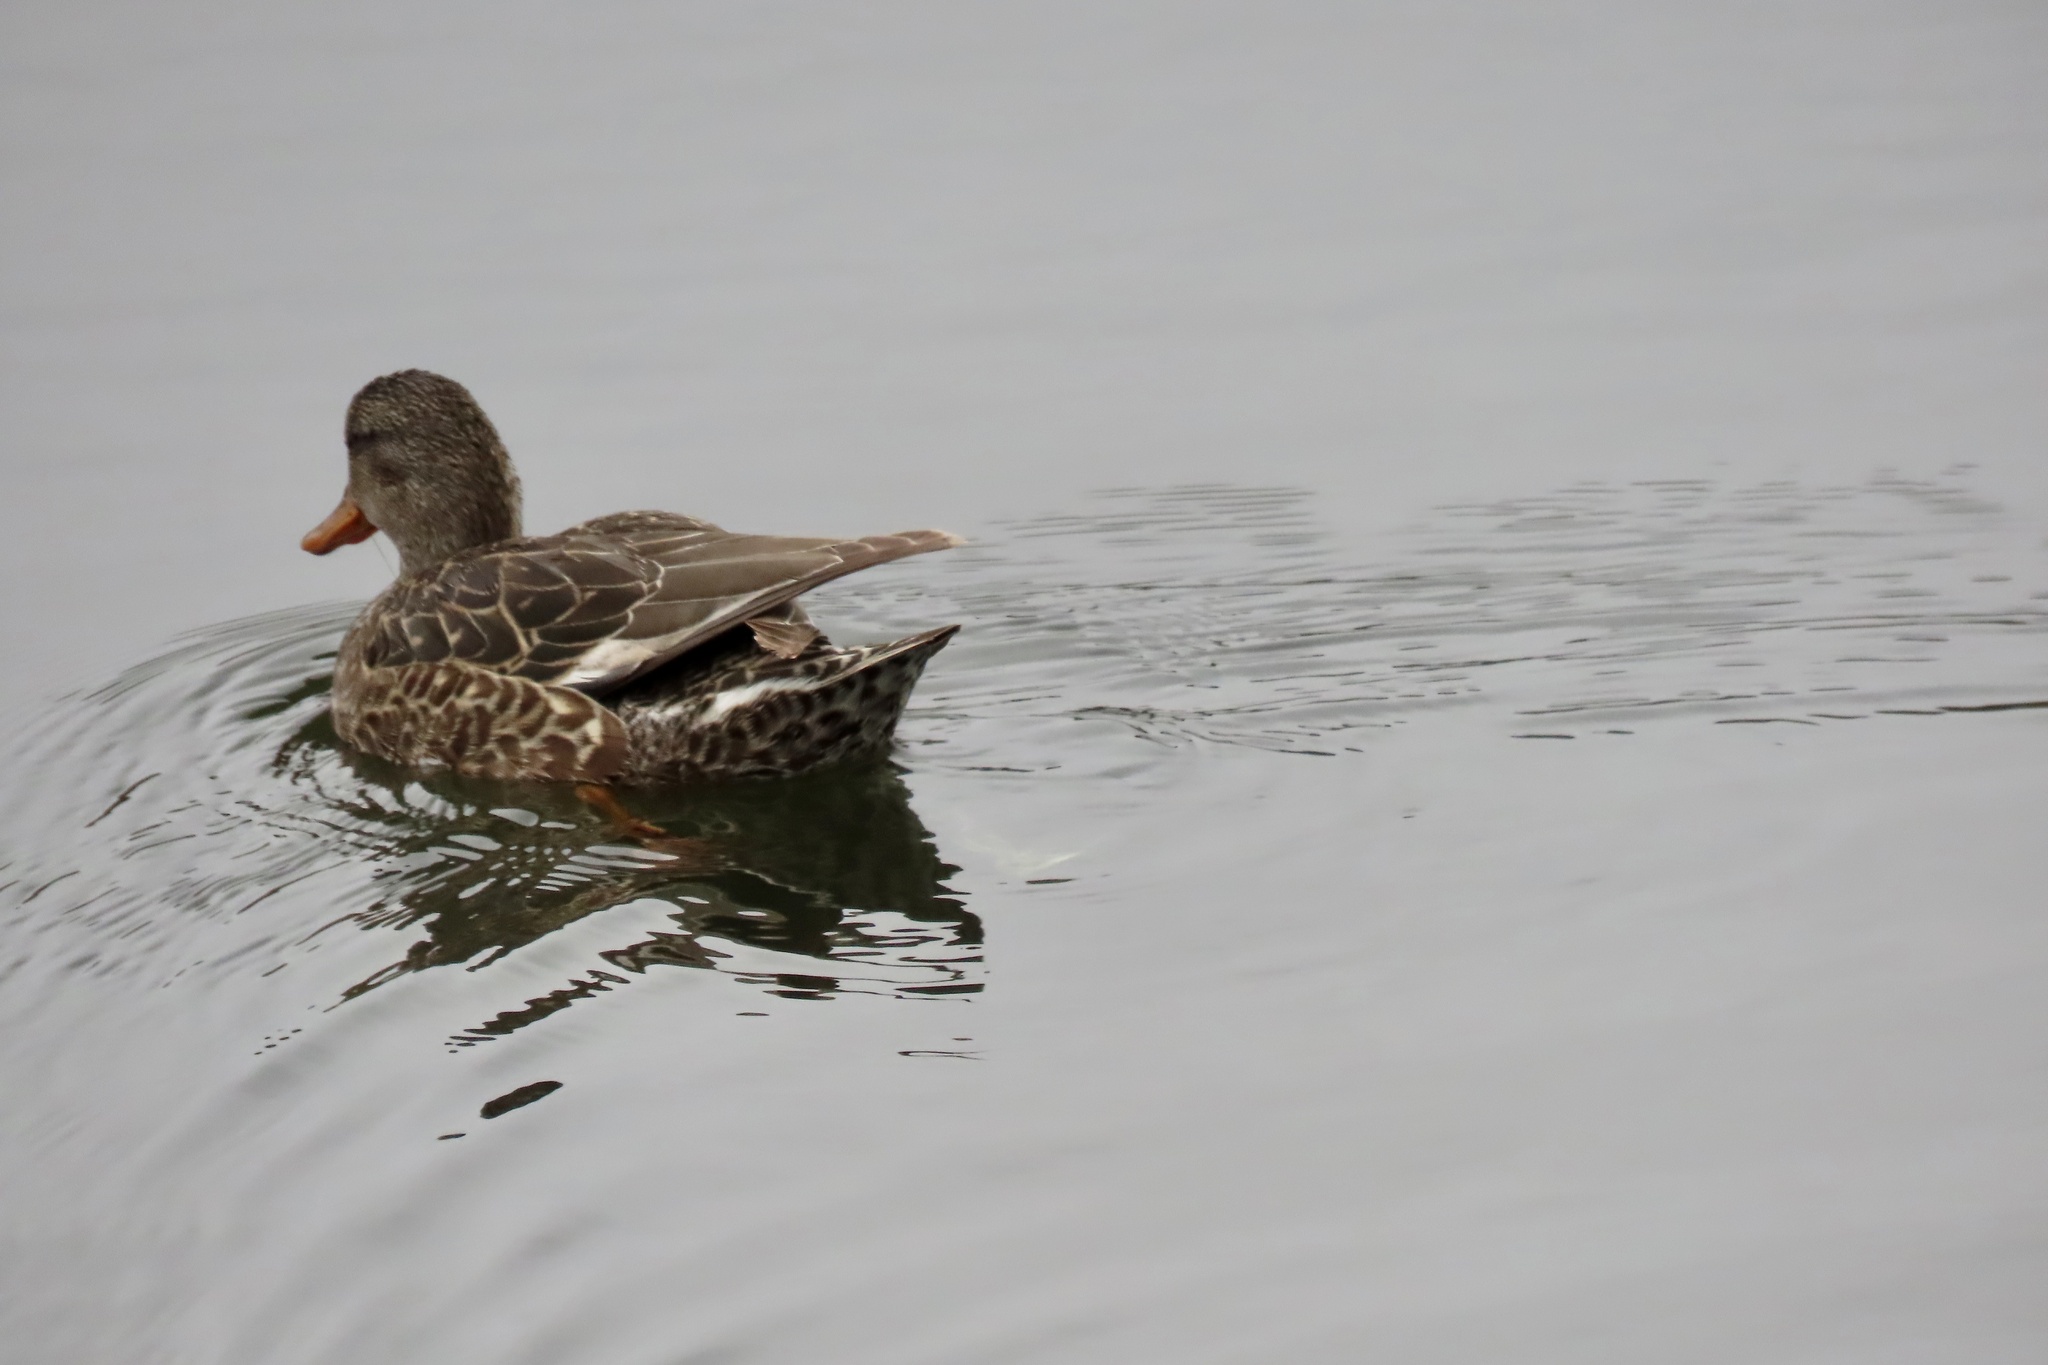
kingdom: Animalia
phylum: Chordata
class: Aves
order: Anseriformes
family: Anatidae
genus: Mareca
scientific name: Mareca strepera
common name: Gadwall
